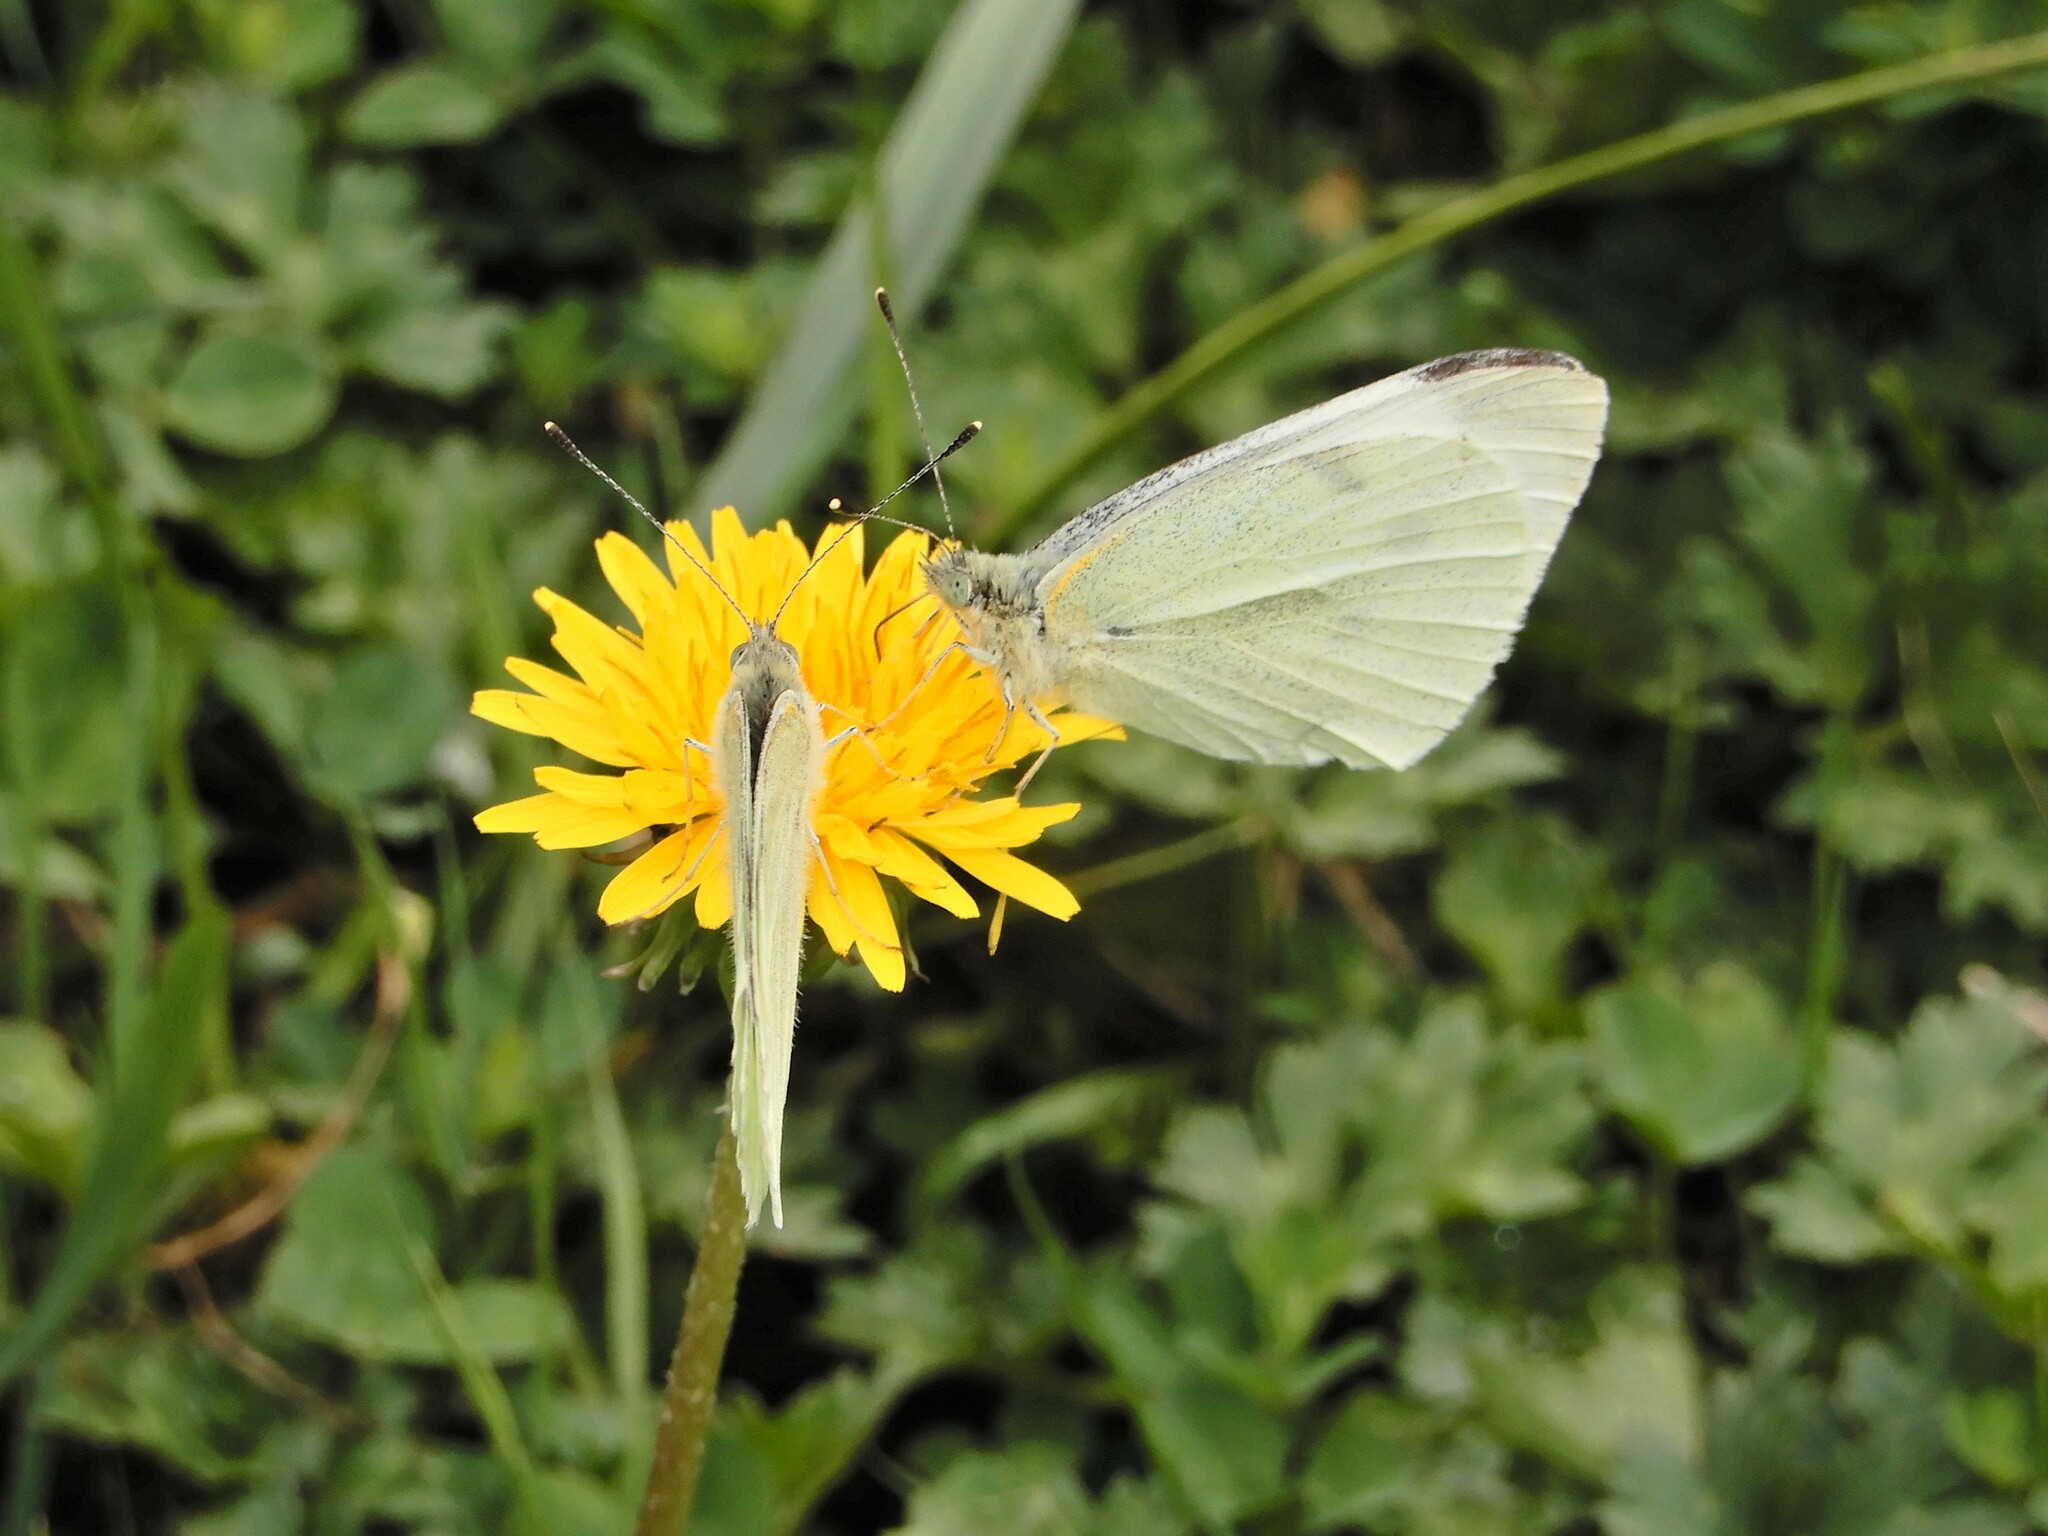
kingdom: Animalia
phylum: Arthropoda
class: Insecta
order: Lepidoptera
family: Pieridae
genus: Pieris
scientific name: Pieris rapae
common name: Small white
